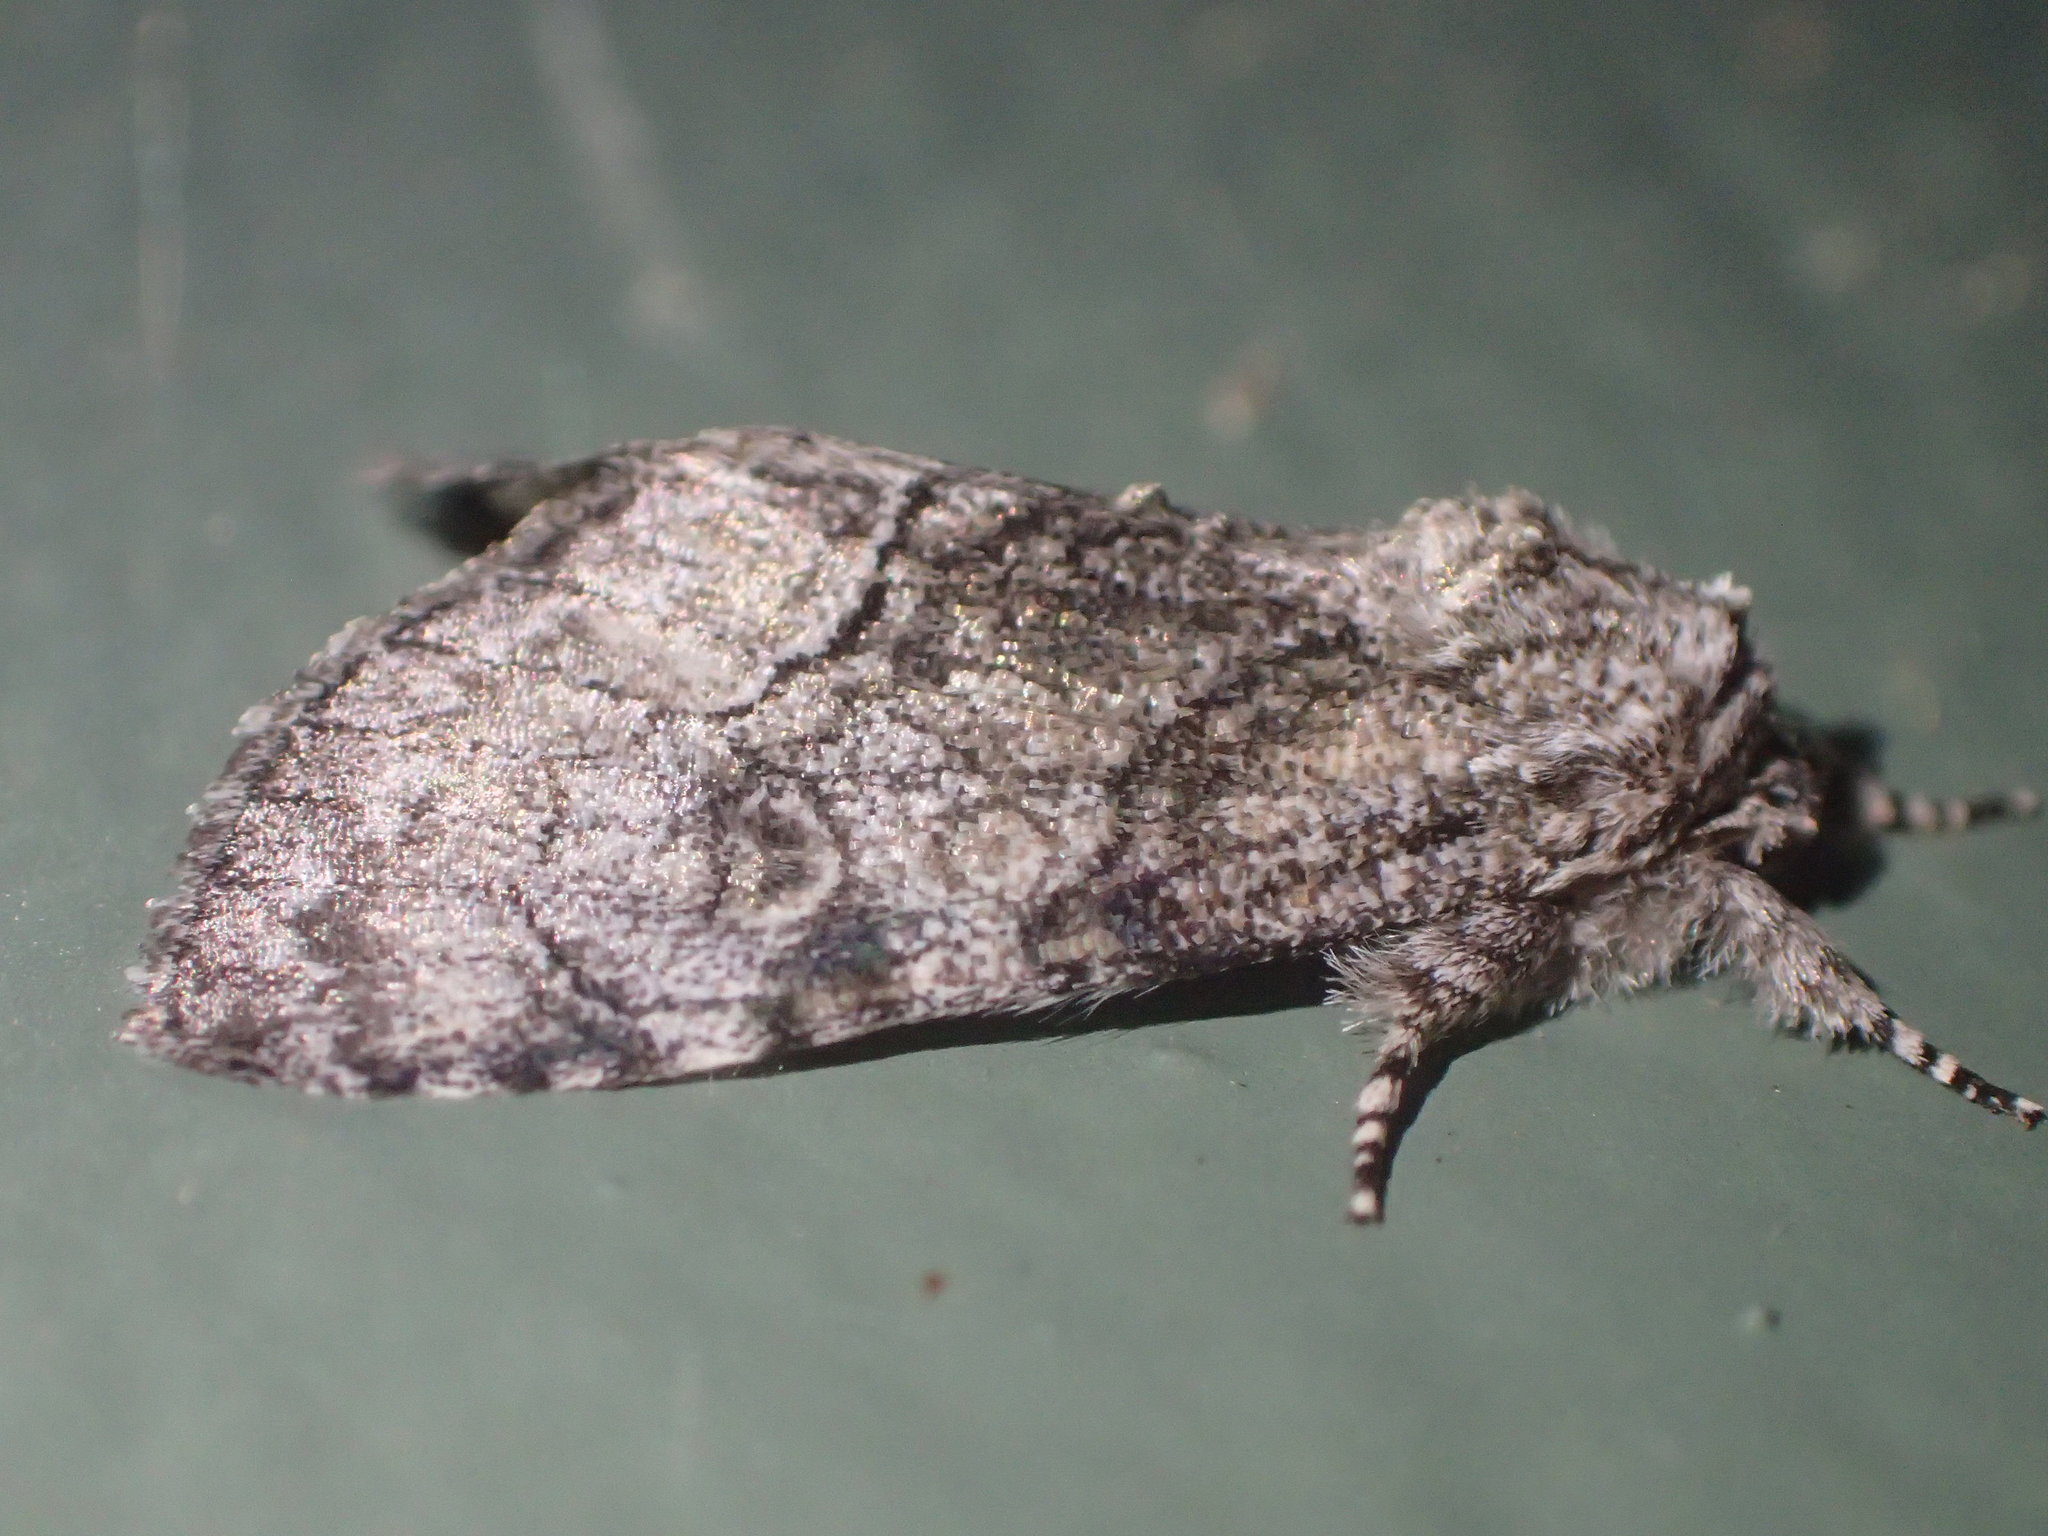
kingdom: Animalia
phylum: Arthropoda
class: Insecta
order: Lepidoptera
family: Noctuidae
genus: Raphia
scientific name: Raphia frater
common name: Brother
